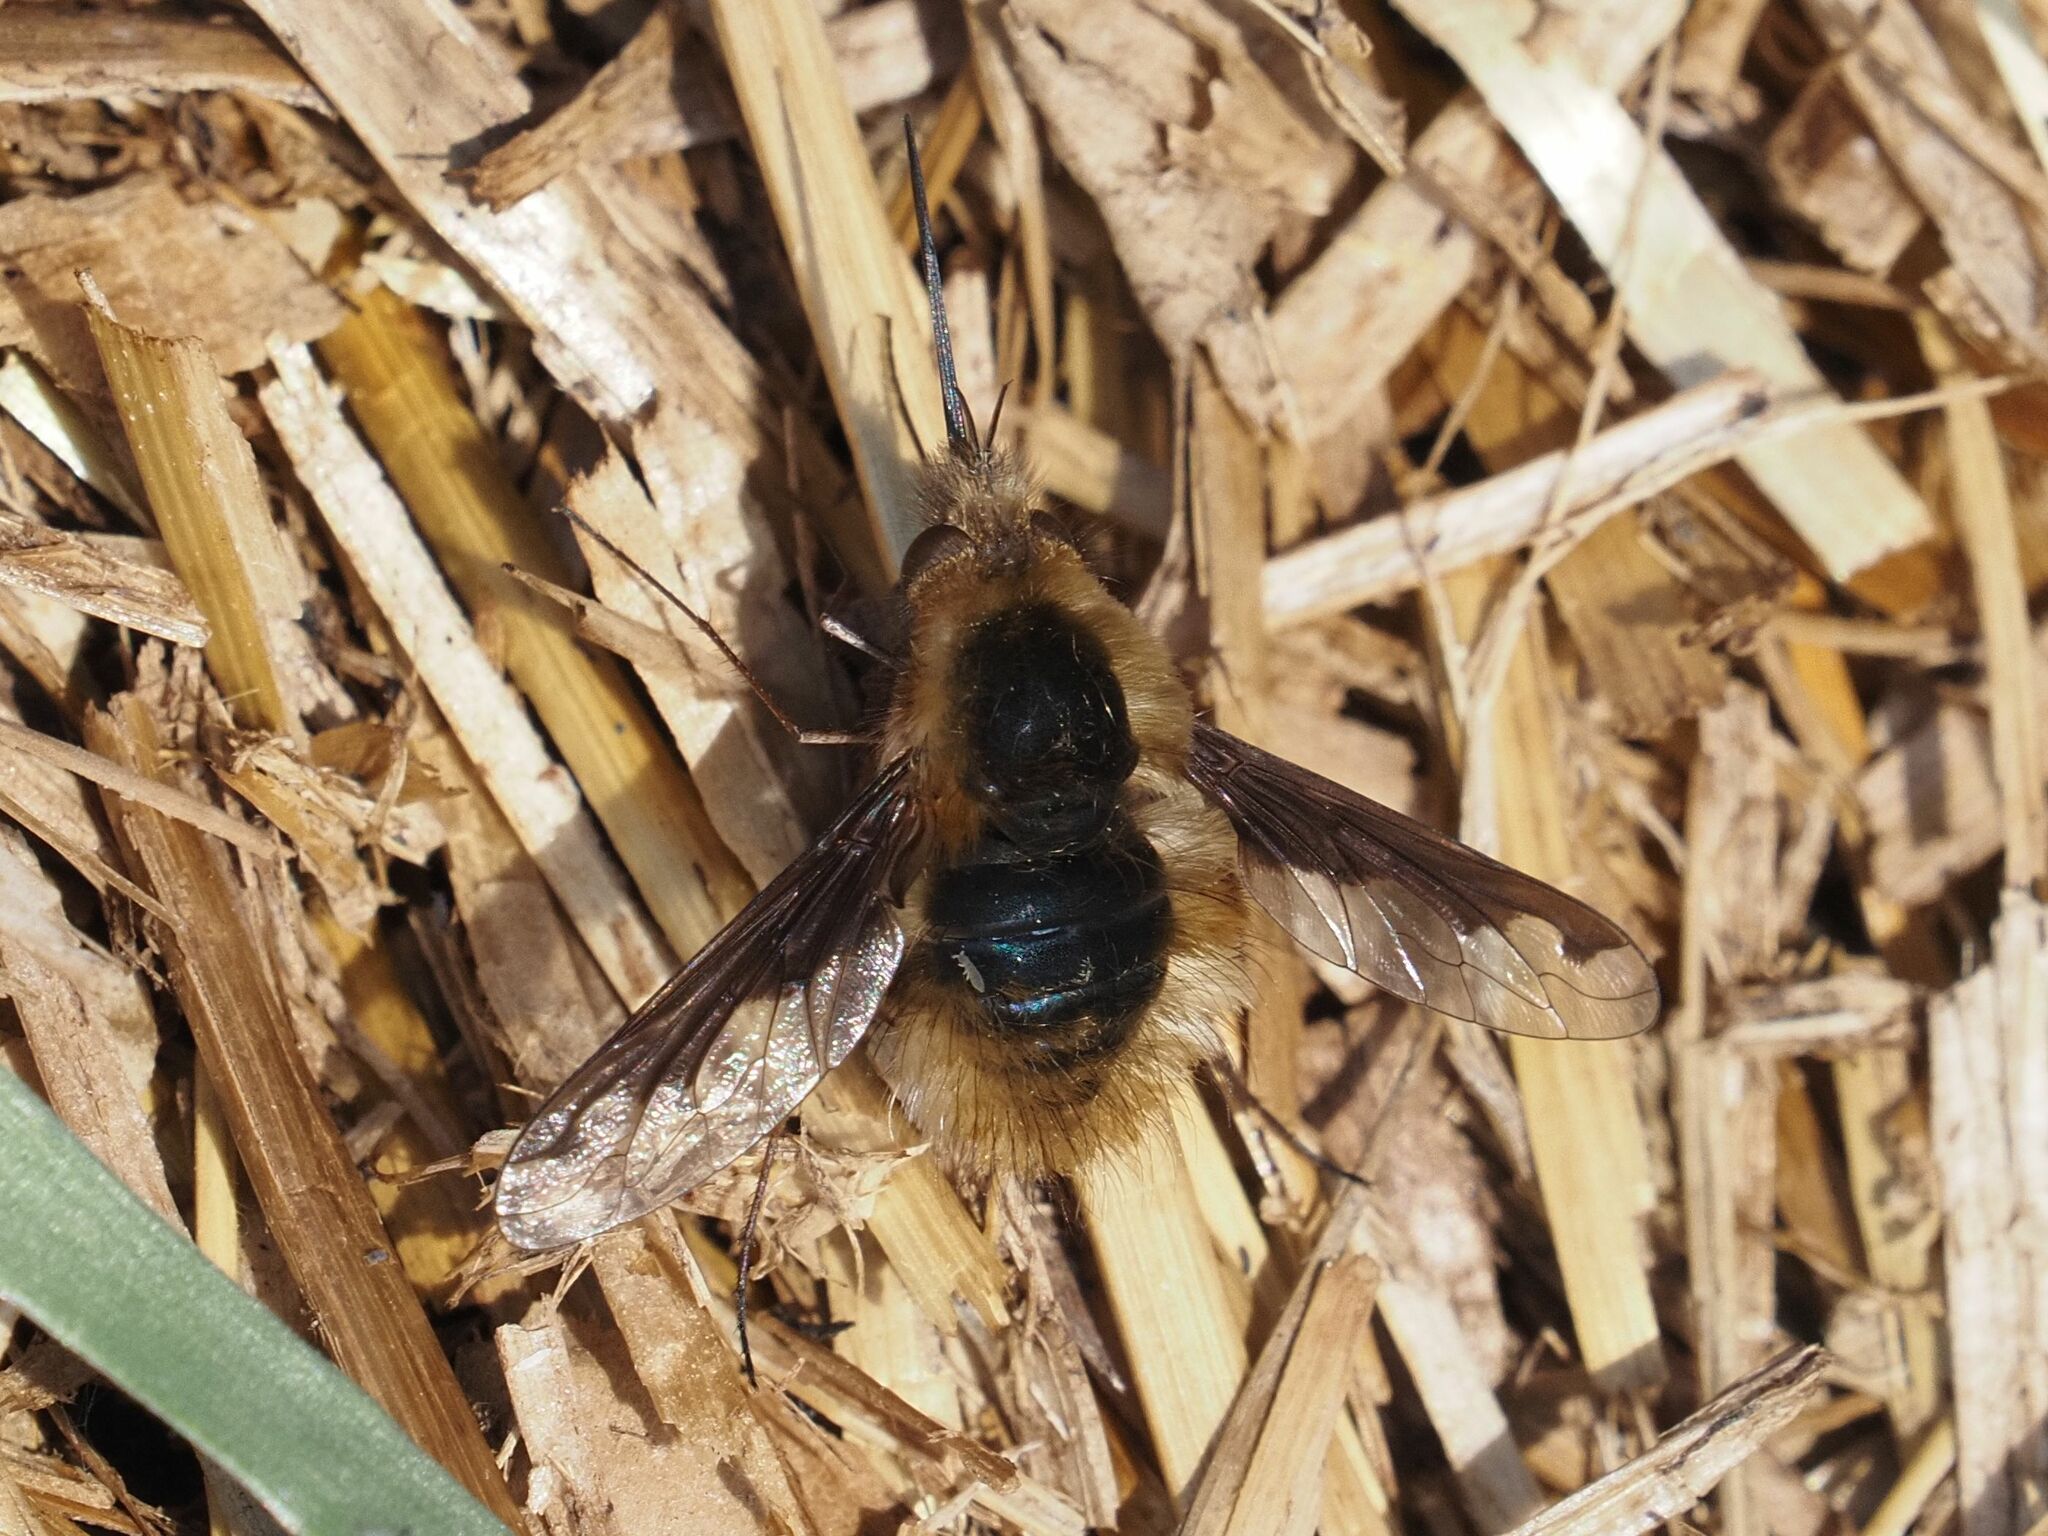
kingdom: Animalia
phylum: Arthropoda
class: Insecta
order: Diptera
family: Bombyliidae
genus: Bombylius
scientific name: Bombylius major
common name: Bee fly
